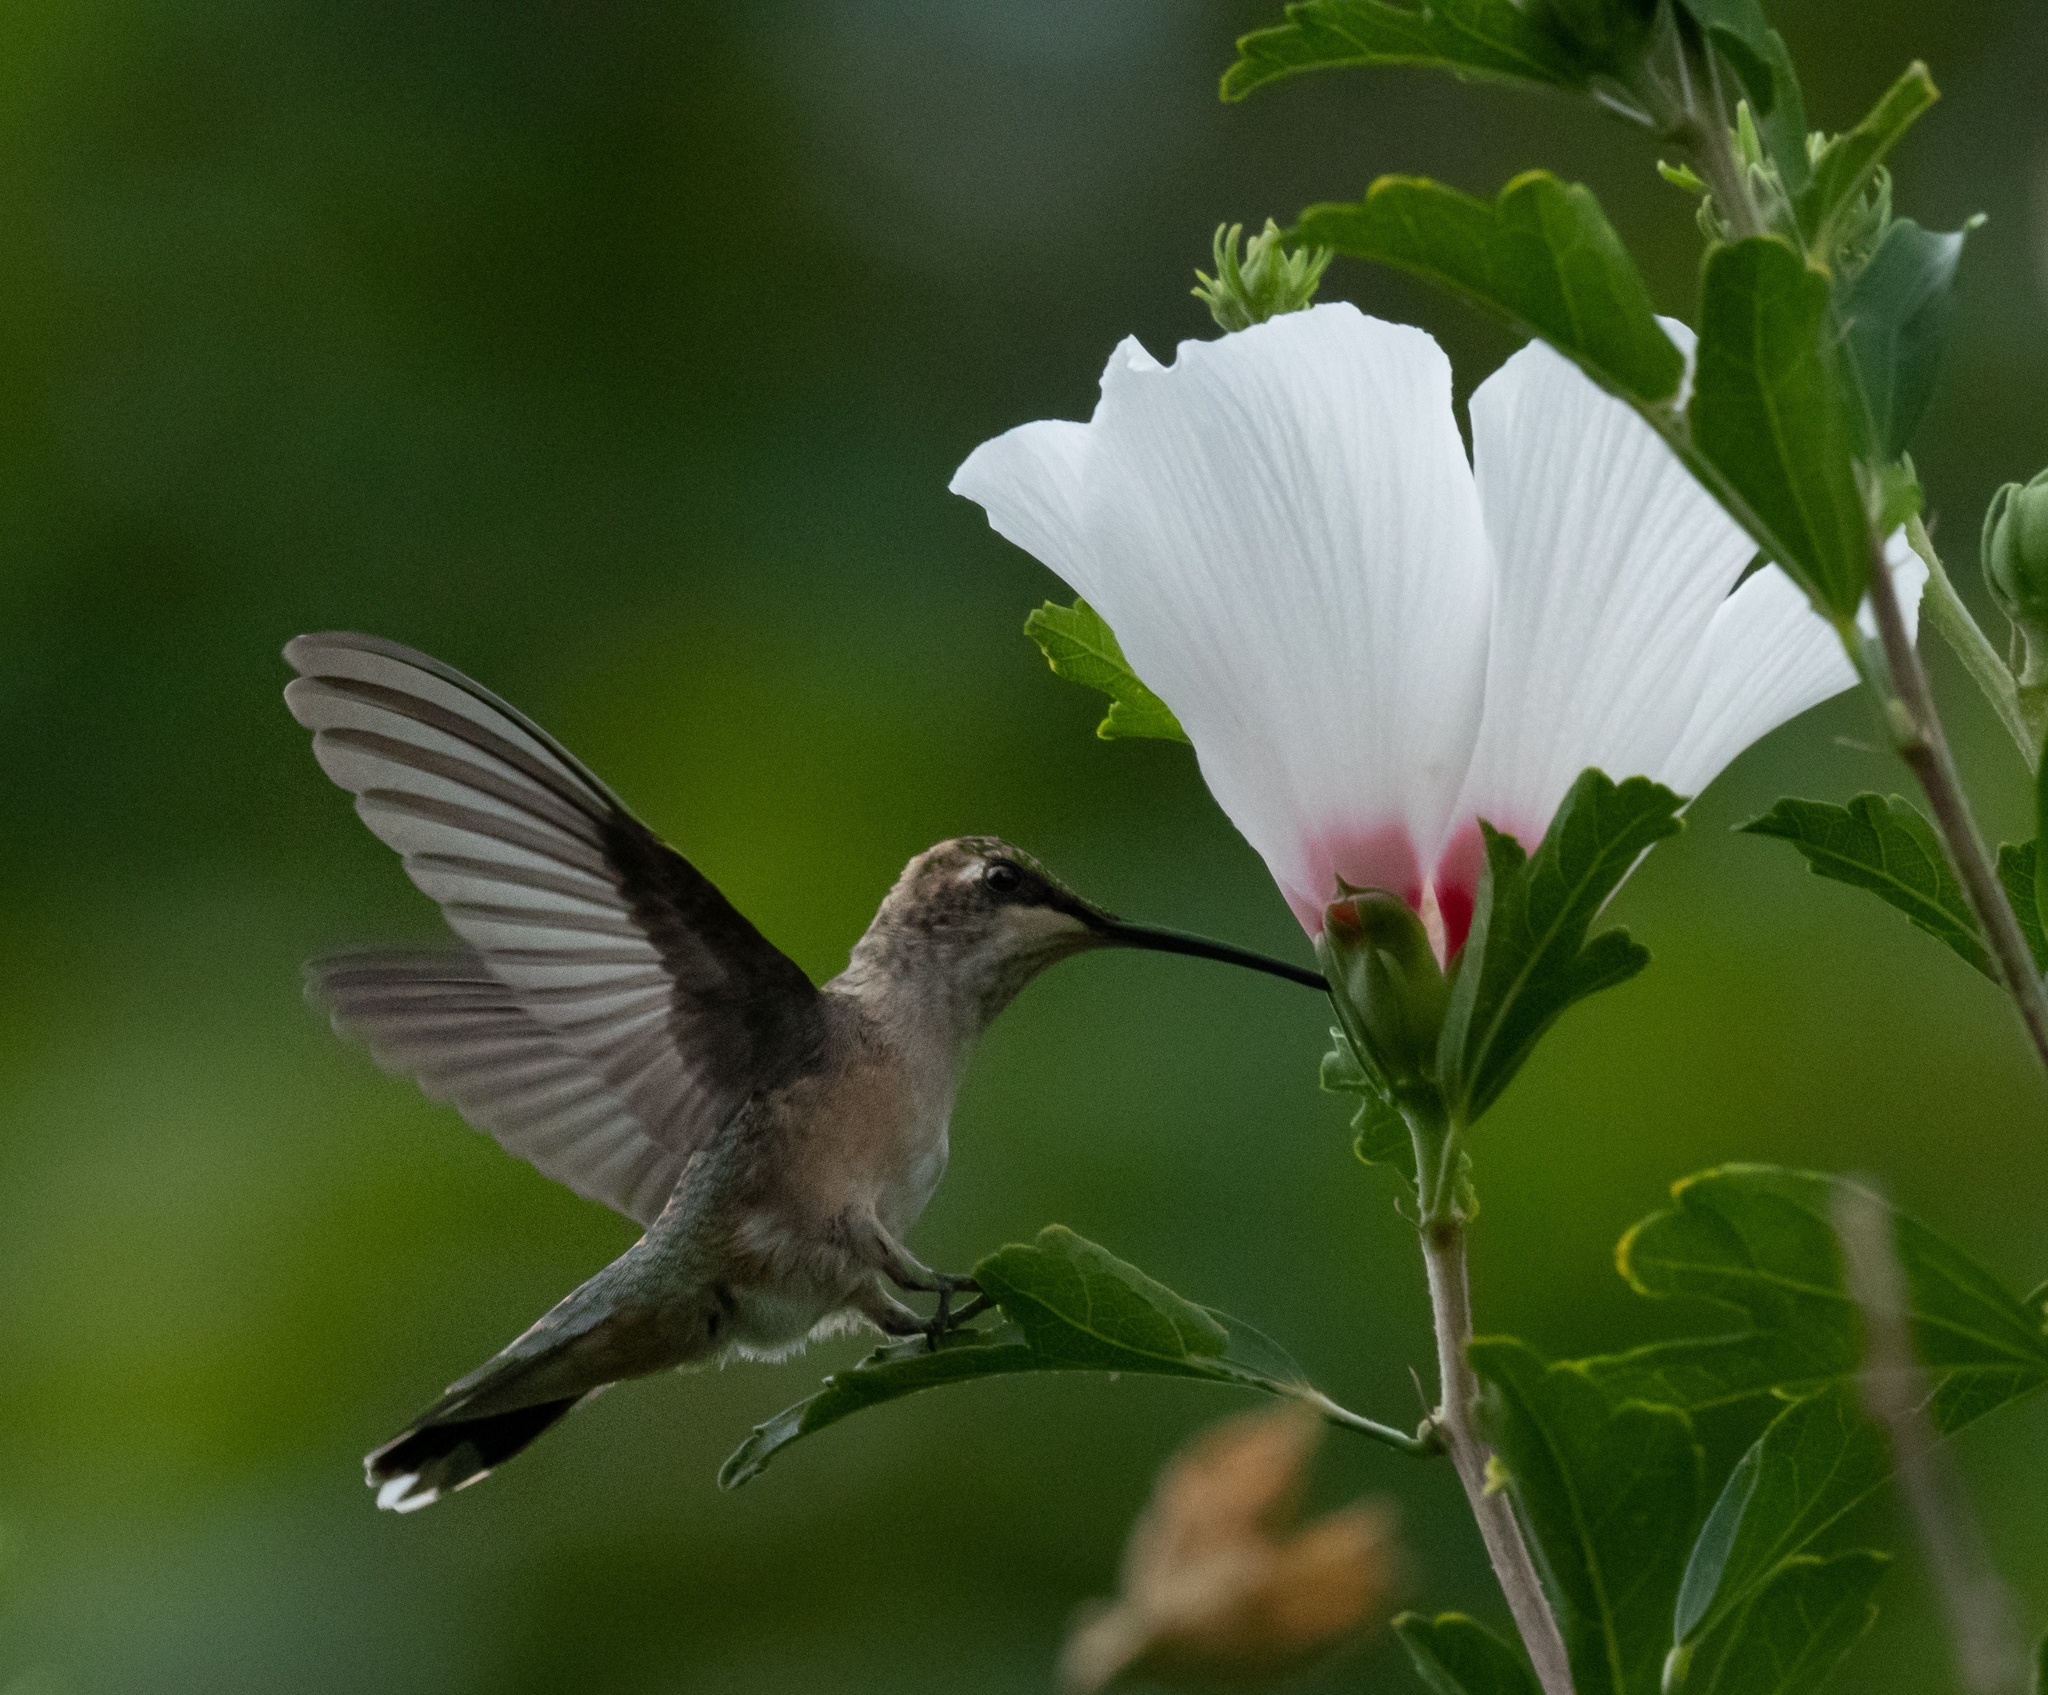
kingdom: Animalia
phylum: Chordata
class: Aves
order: Apodiformes
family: Trochilidae
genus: Archilochus
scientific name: Archilochus alexandri
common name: Black-chinned hummingbird
